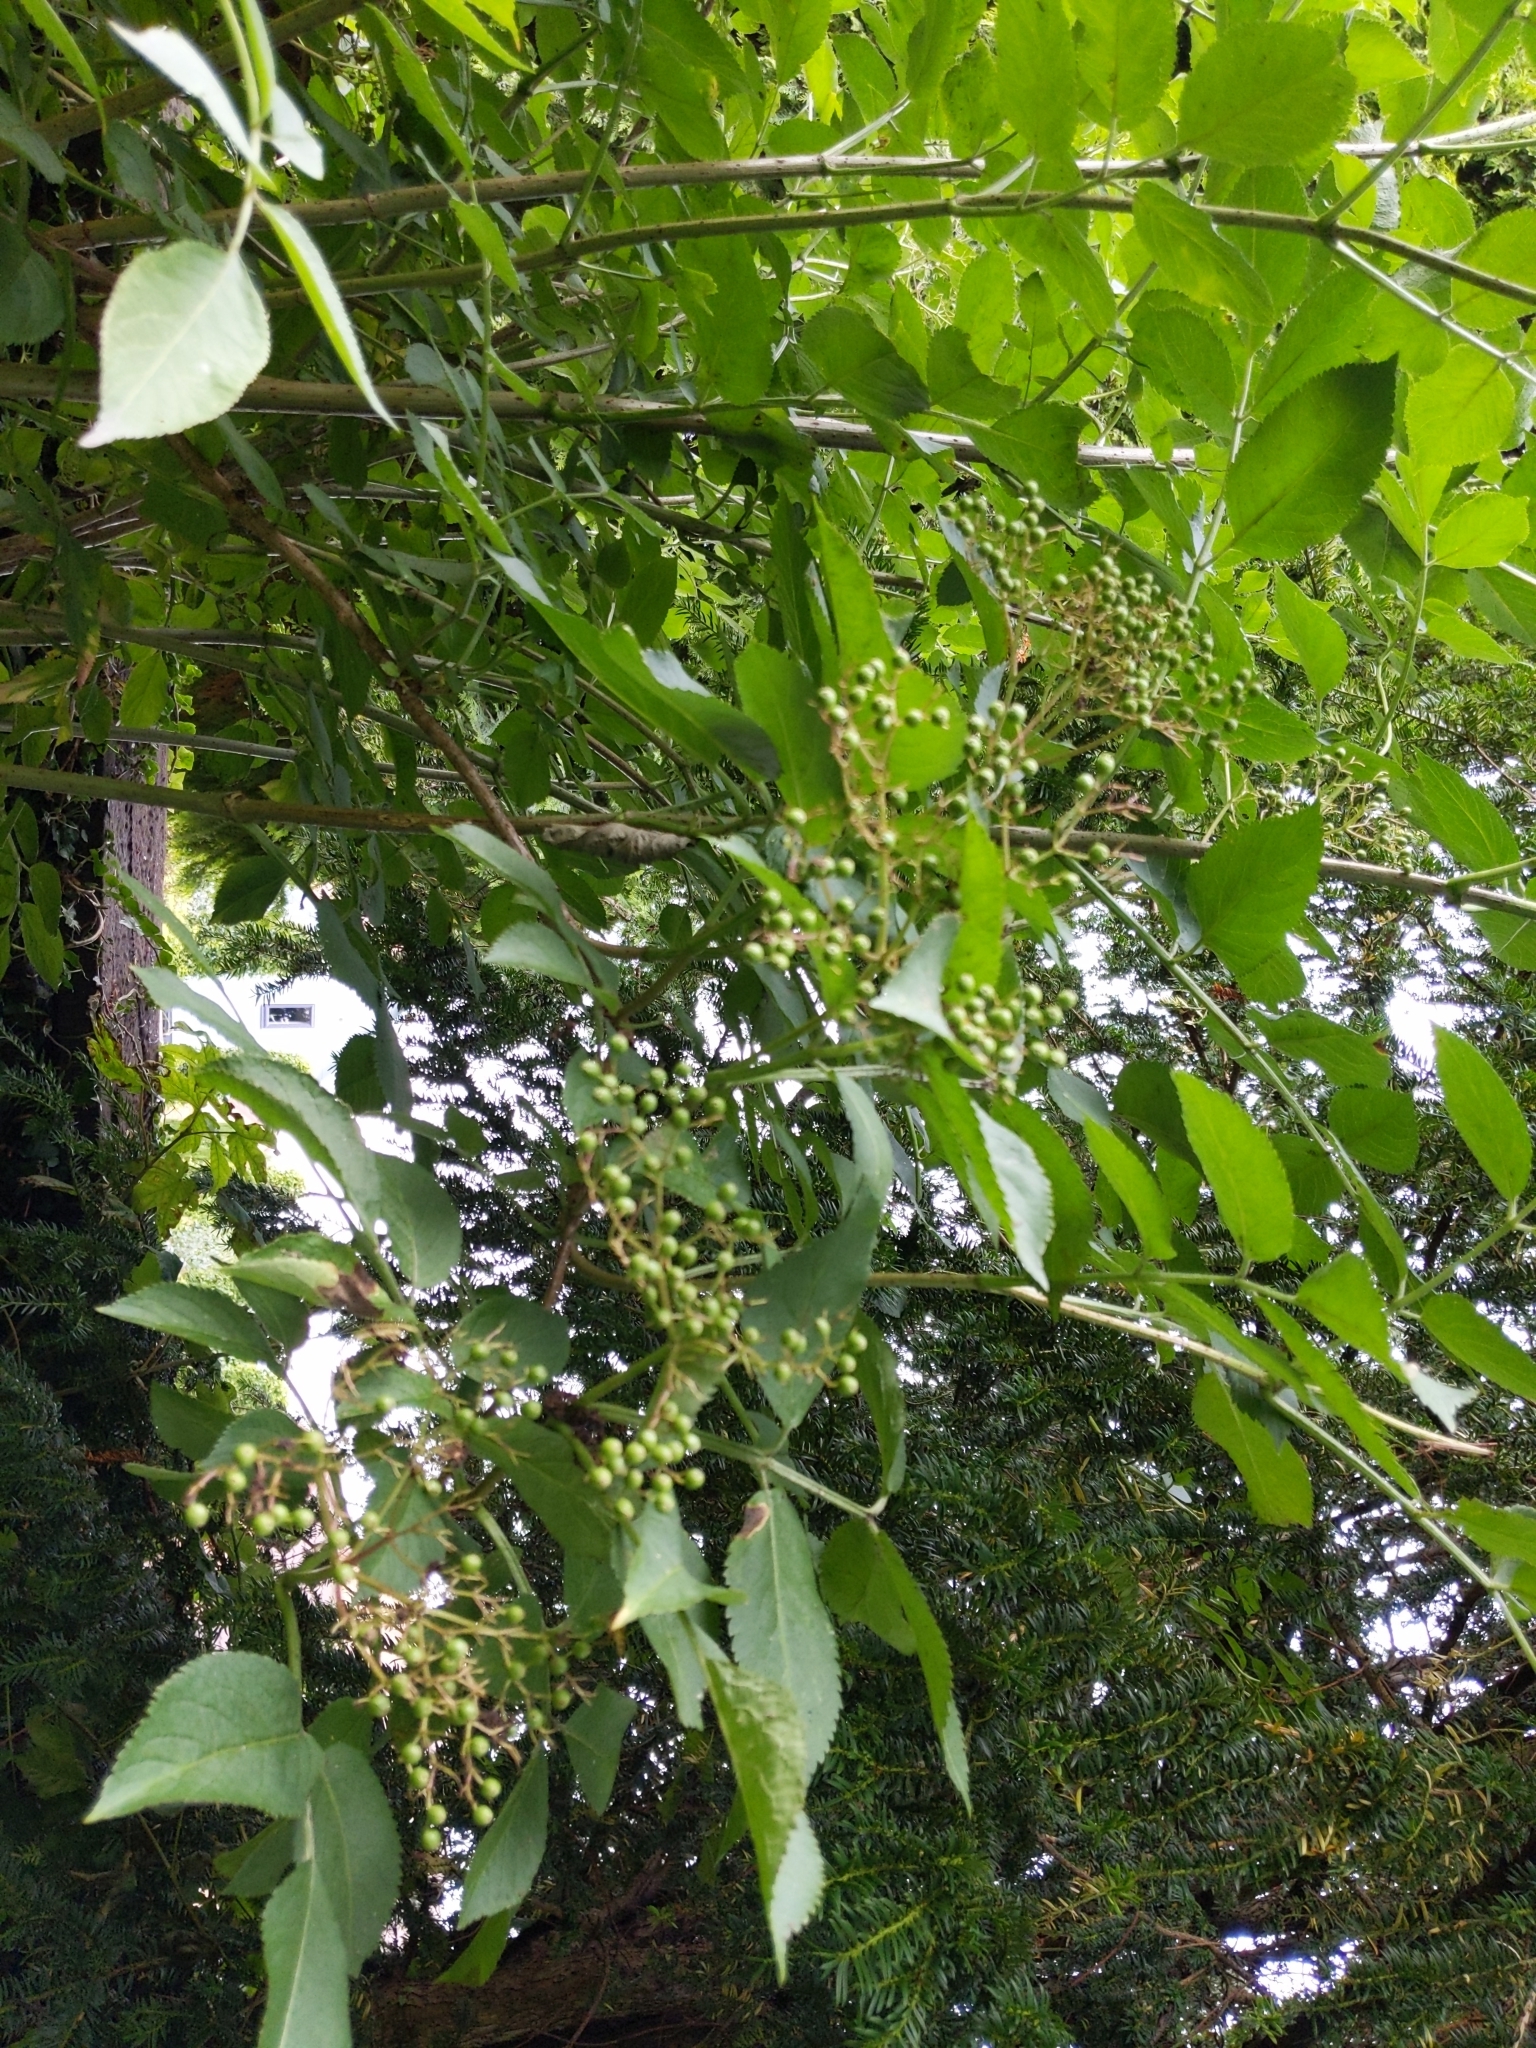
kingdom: Plantae
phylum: Tracheophyta
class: Magnoliopsida
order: Dipsacales
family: Viburnaceae
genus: Sambucus
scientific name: Sambucus nigra
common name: Elder
